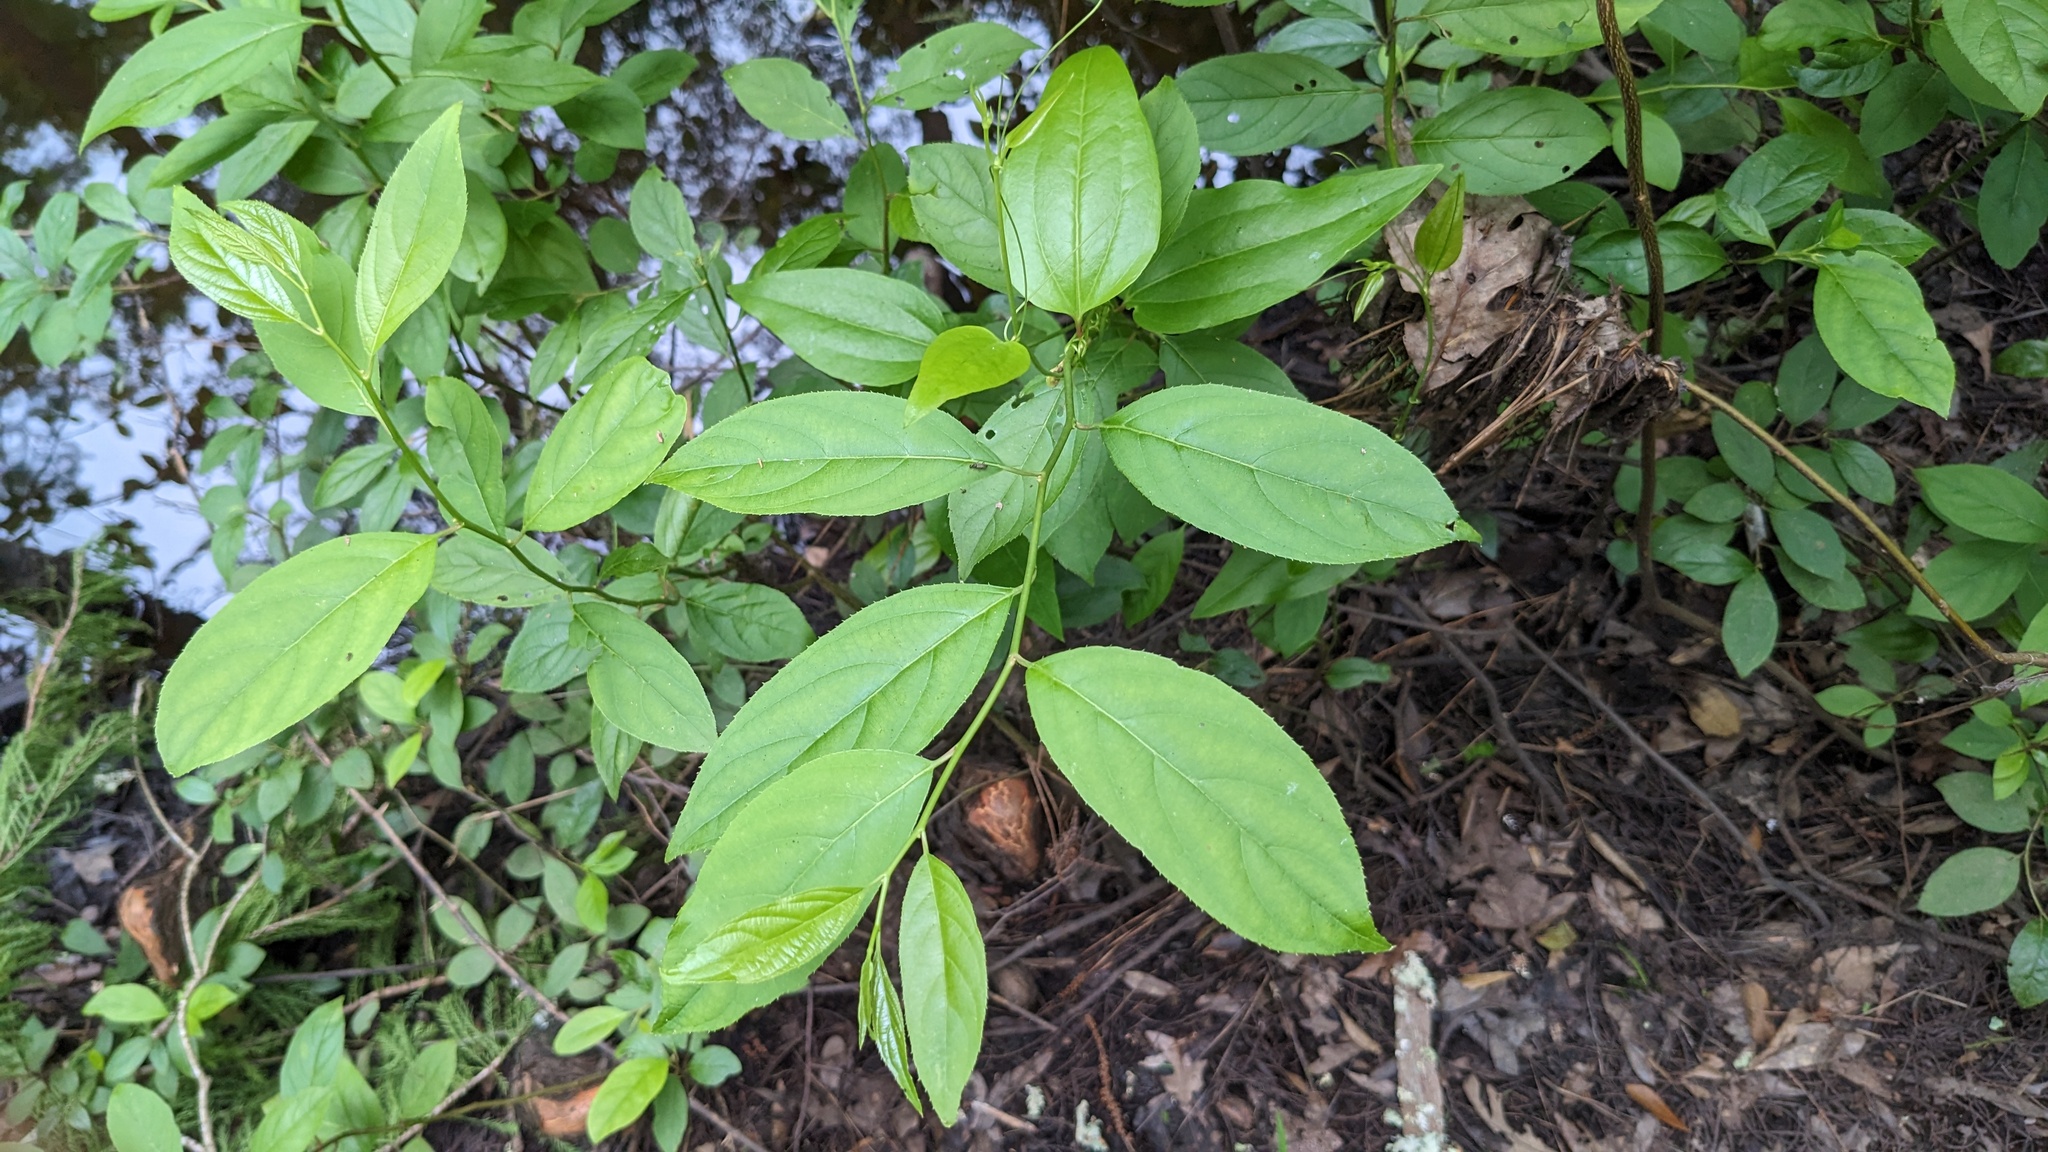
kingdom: Plantae
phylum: Tracheophyta
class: Magnoliopsida
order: Saxifragales
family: Iteaceae
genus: Itea
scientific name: Itea virginica
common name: Sweetspire
